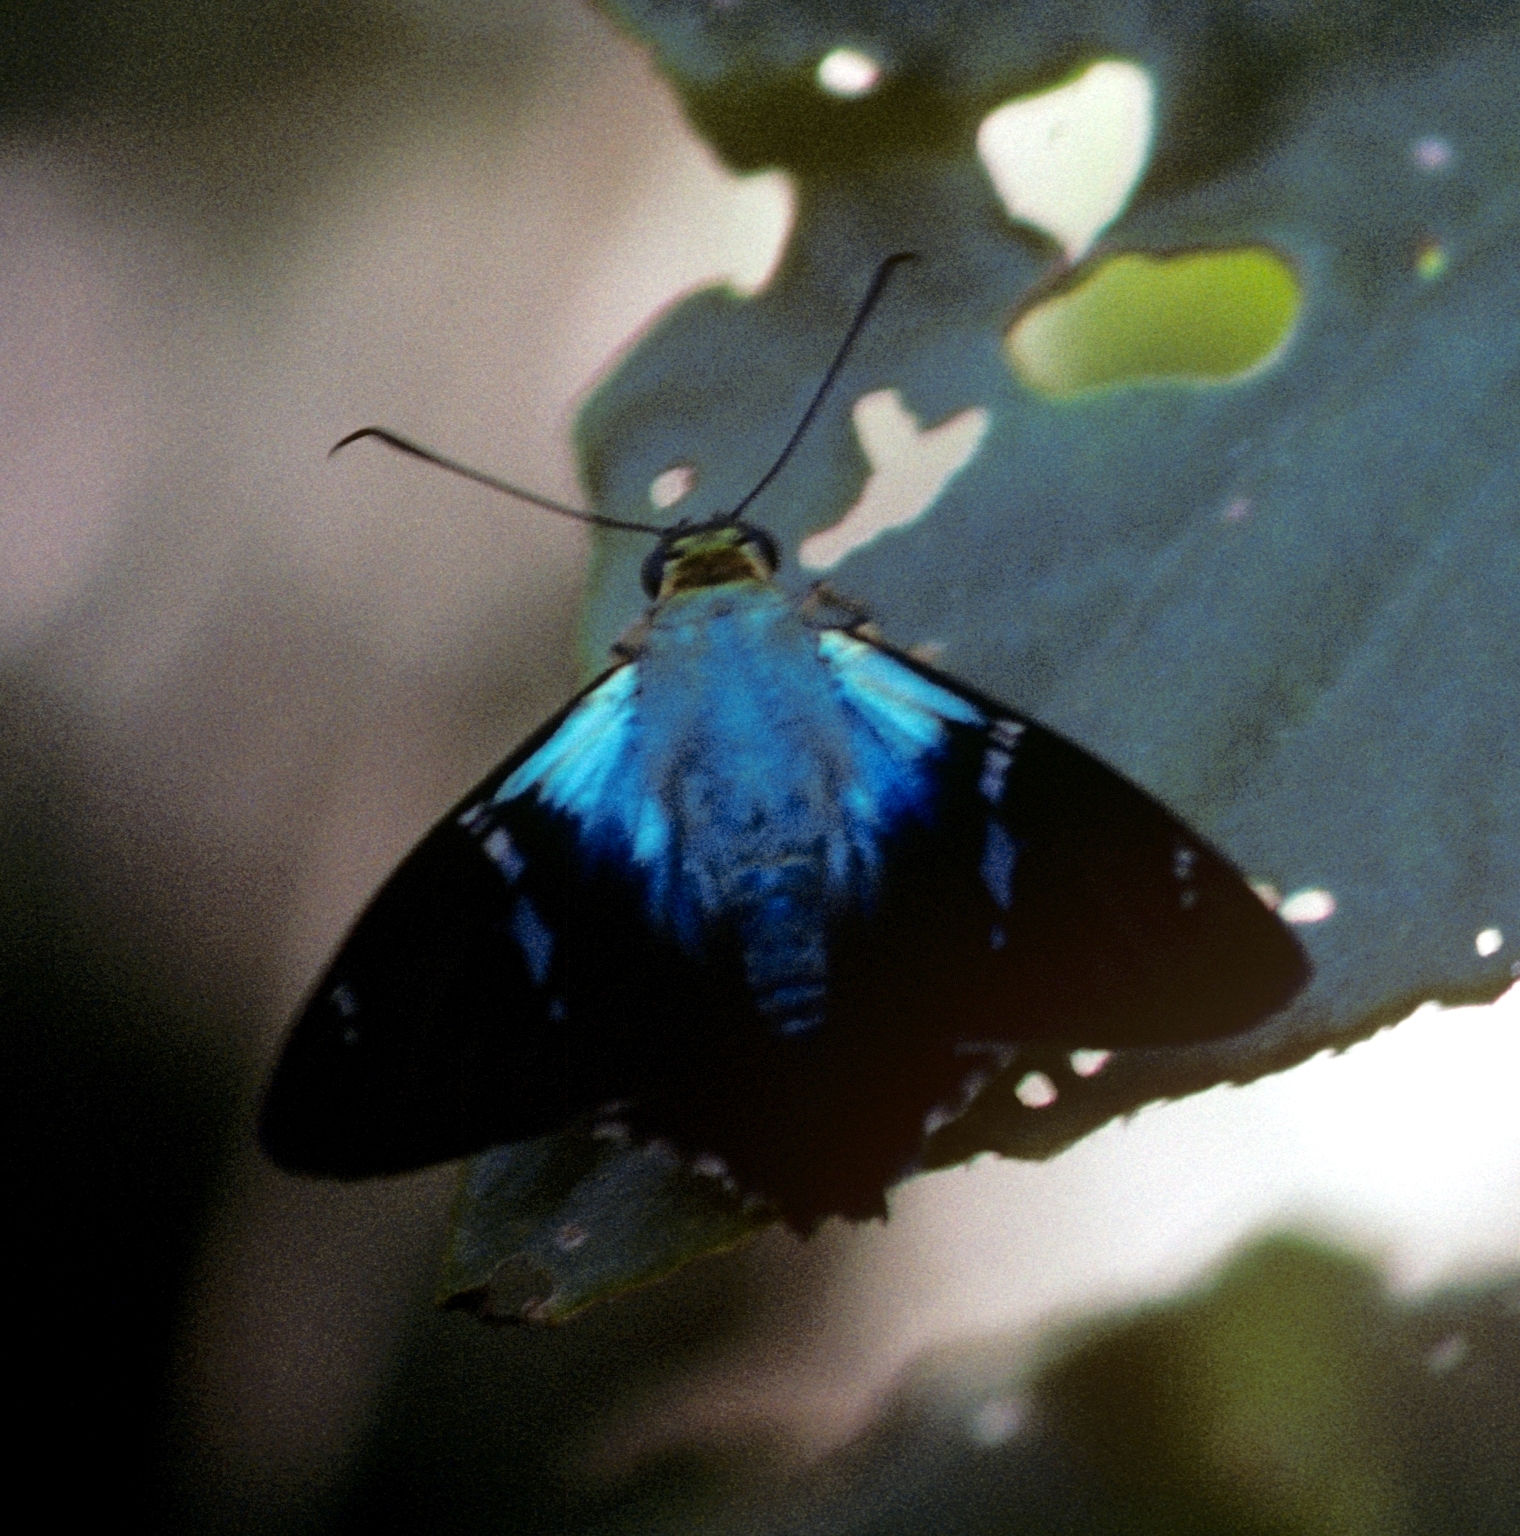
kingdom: Animalia
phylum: Arthropoda
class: Insecta
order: Lepidoptera
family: Hesperiidae
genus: Astraptes
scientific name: Astraptes fulgerator
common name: Two-barred flasher
